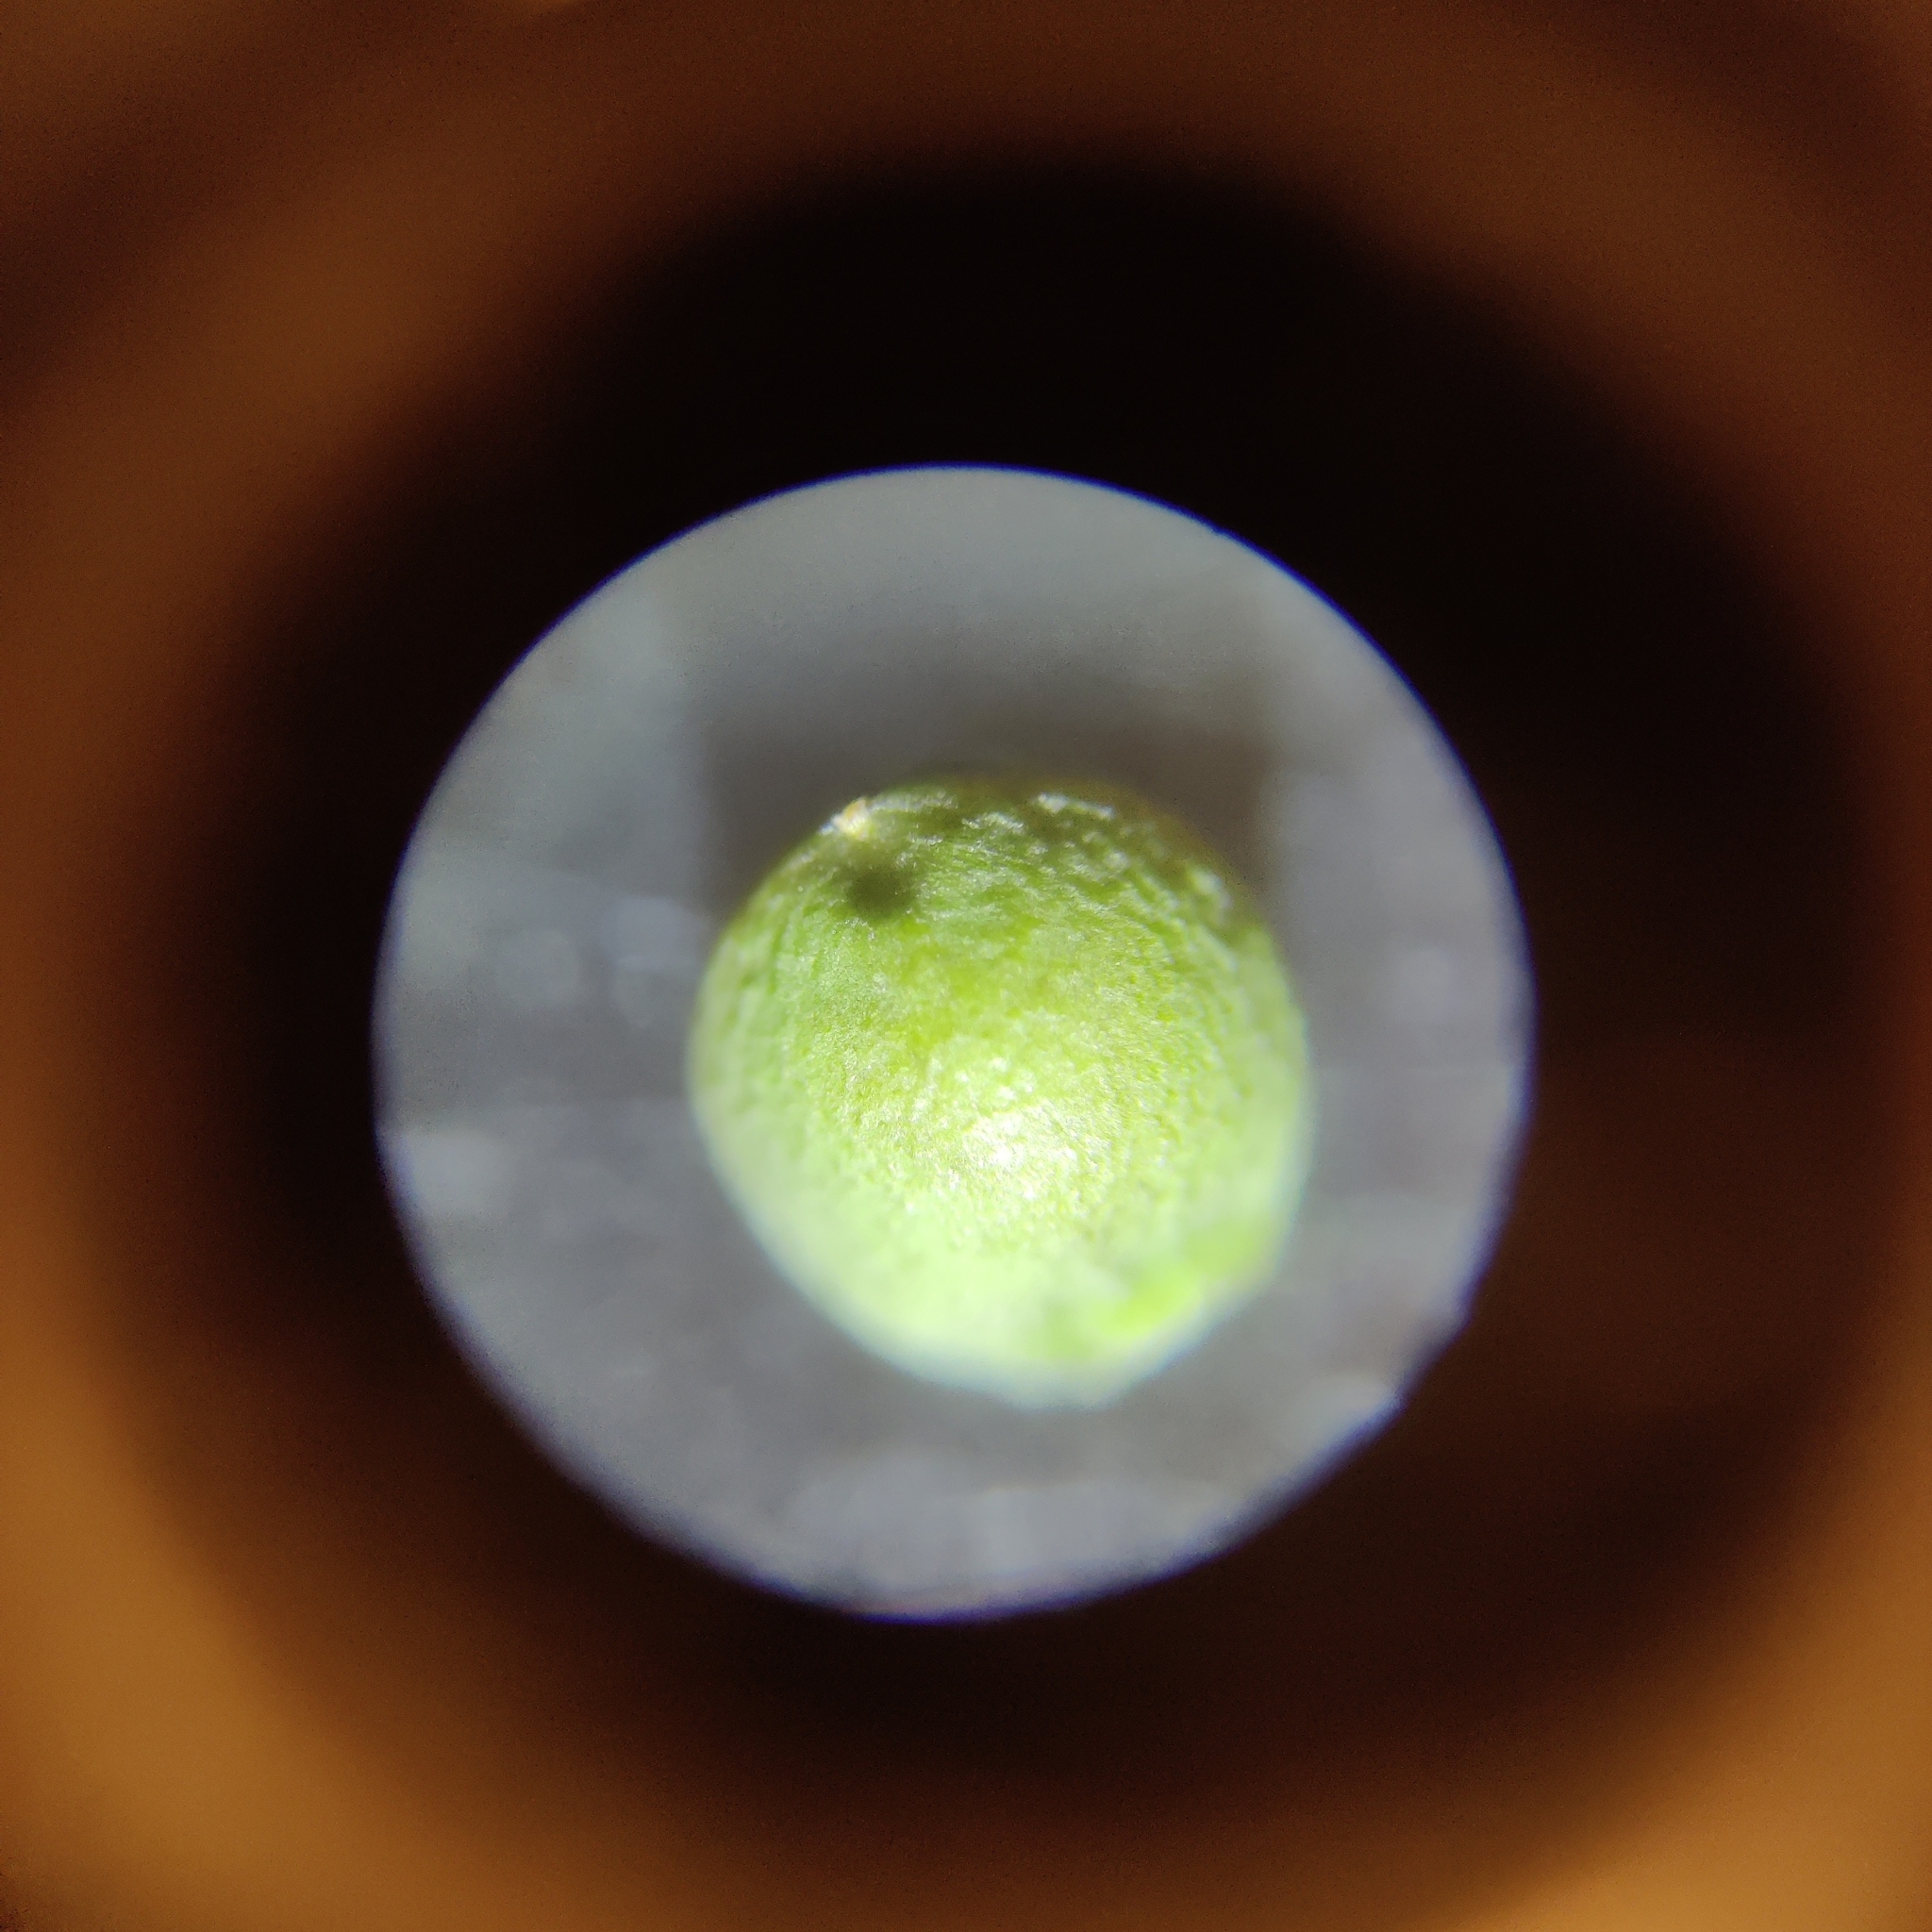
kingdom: Plantae
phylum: Tracheophyta
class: Magnoliopsida
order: Ranunculales
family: Papaveraceae
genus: Fumaria
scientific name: Fumaria muralis
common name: Common ramping-fumitory
